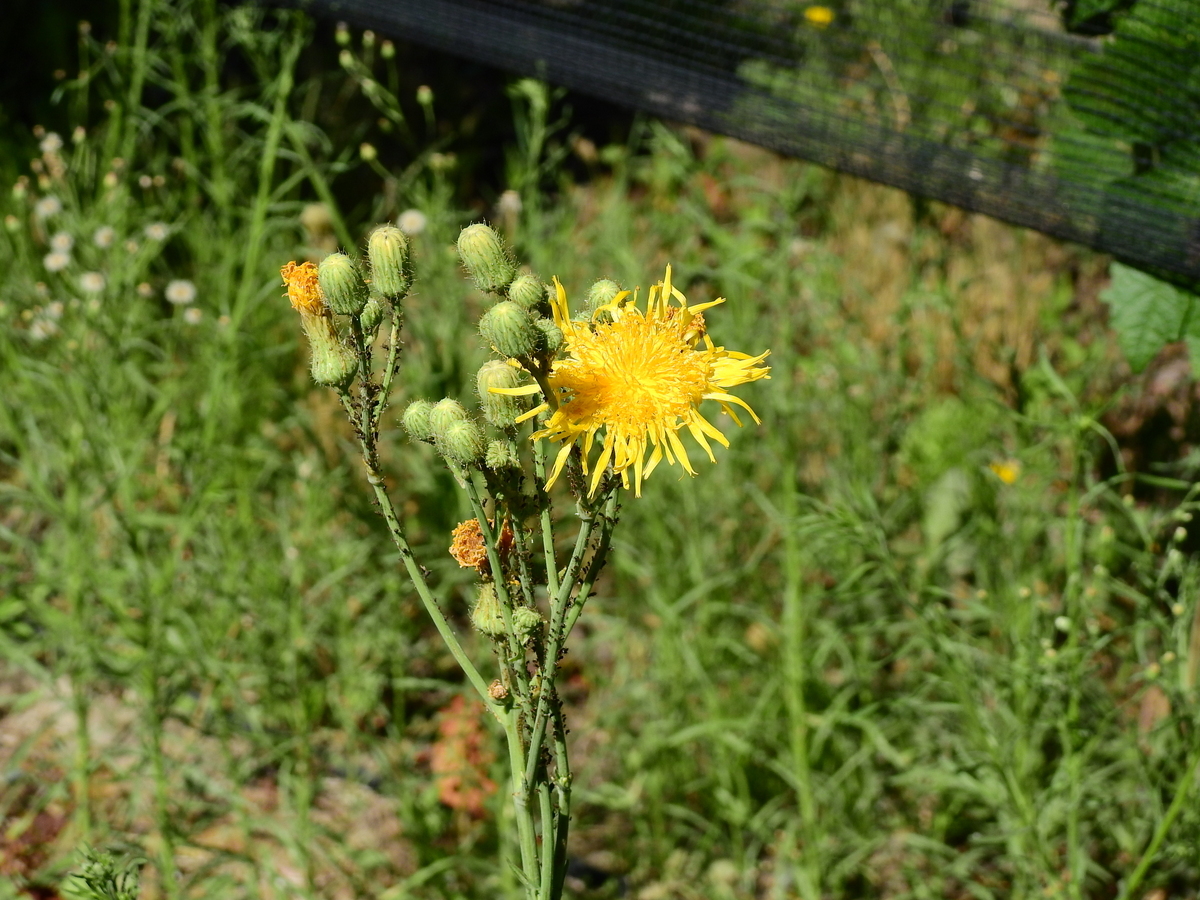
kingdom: Plantae
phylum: Tracheophyta
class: Magnoliopsida
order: Asterales
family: Asteraceae
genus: Sonchus
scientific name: Sonchus arvensis
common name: Perennial sow-thistle
